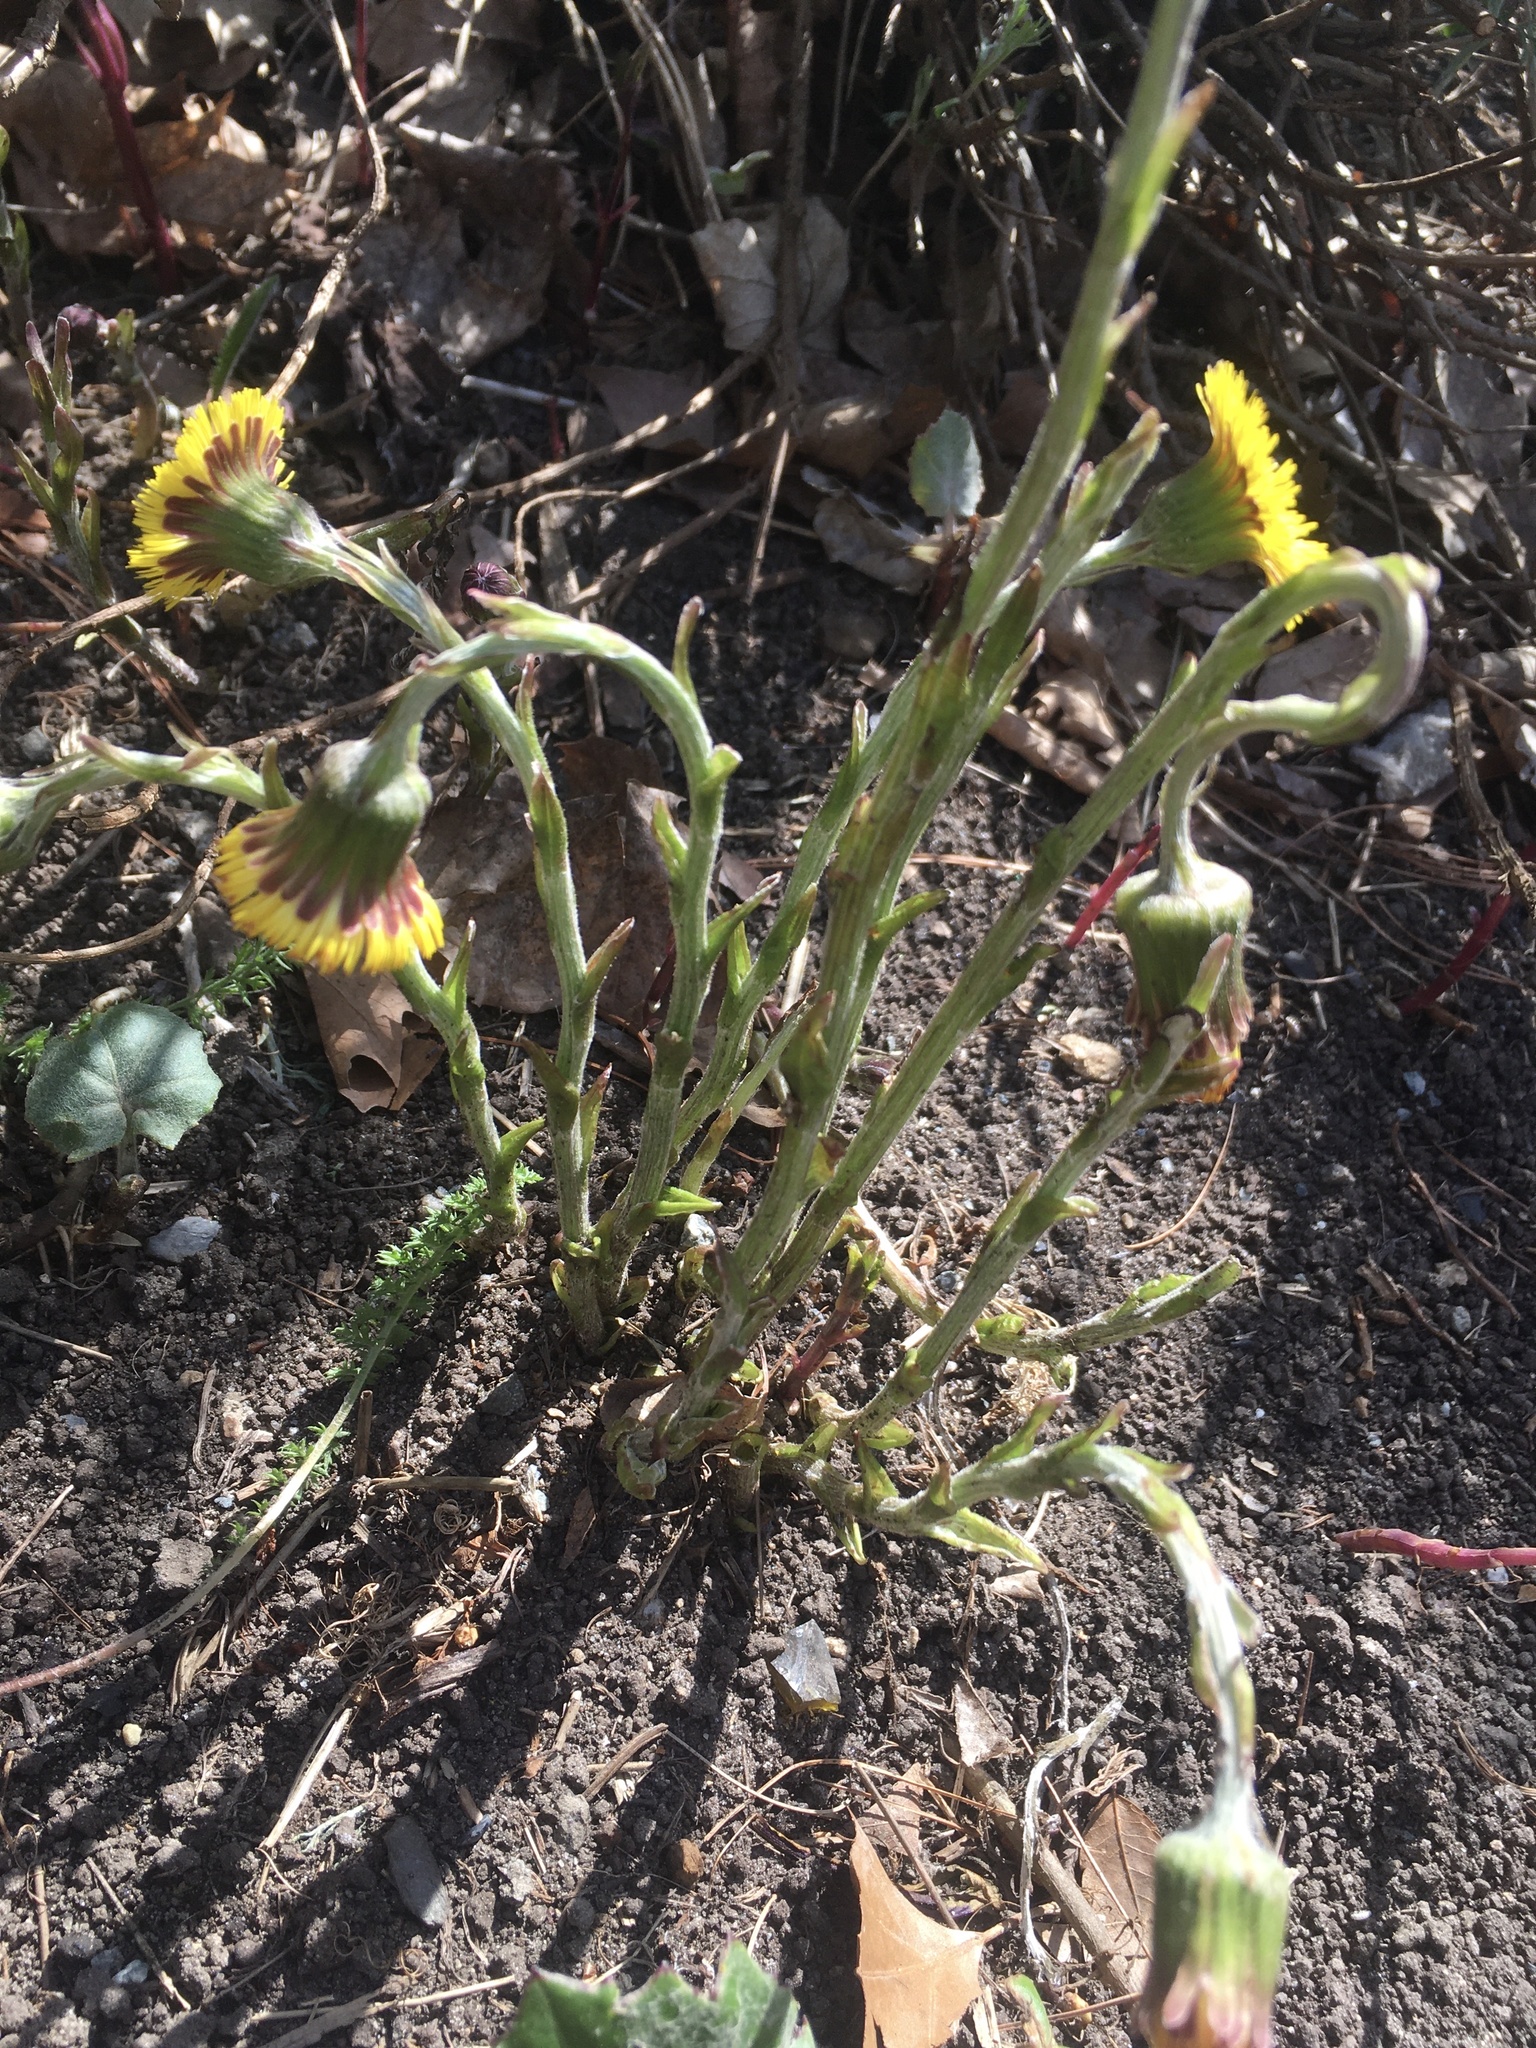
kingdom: Plantae
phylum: Tracheophyta
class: Magnoliopsida
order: Asterales
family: Asteraceae
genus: Tussilago
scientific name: Tussilago farfara
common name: Coltsfoot
